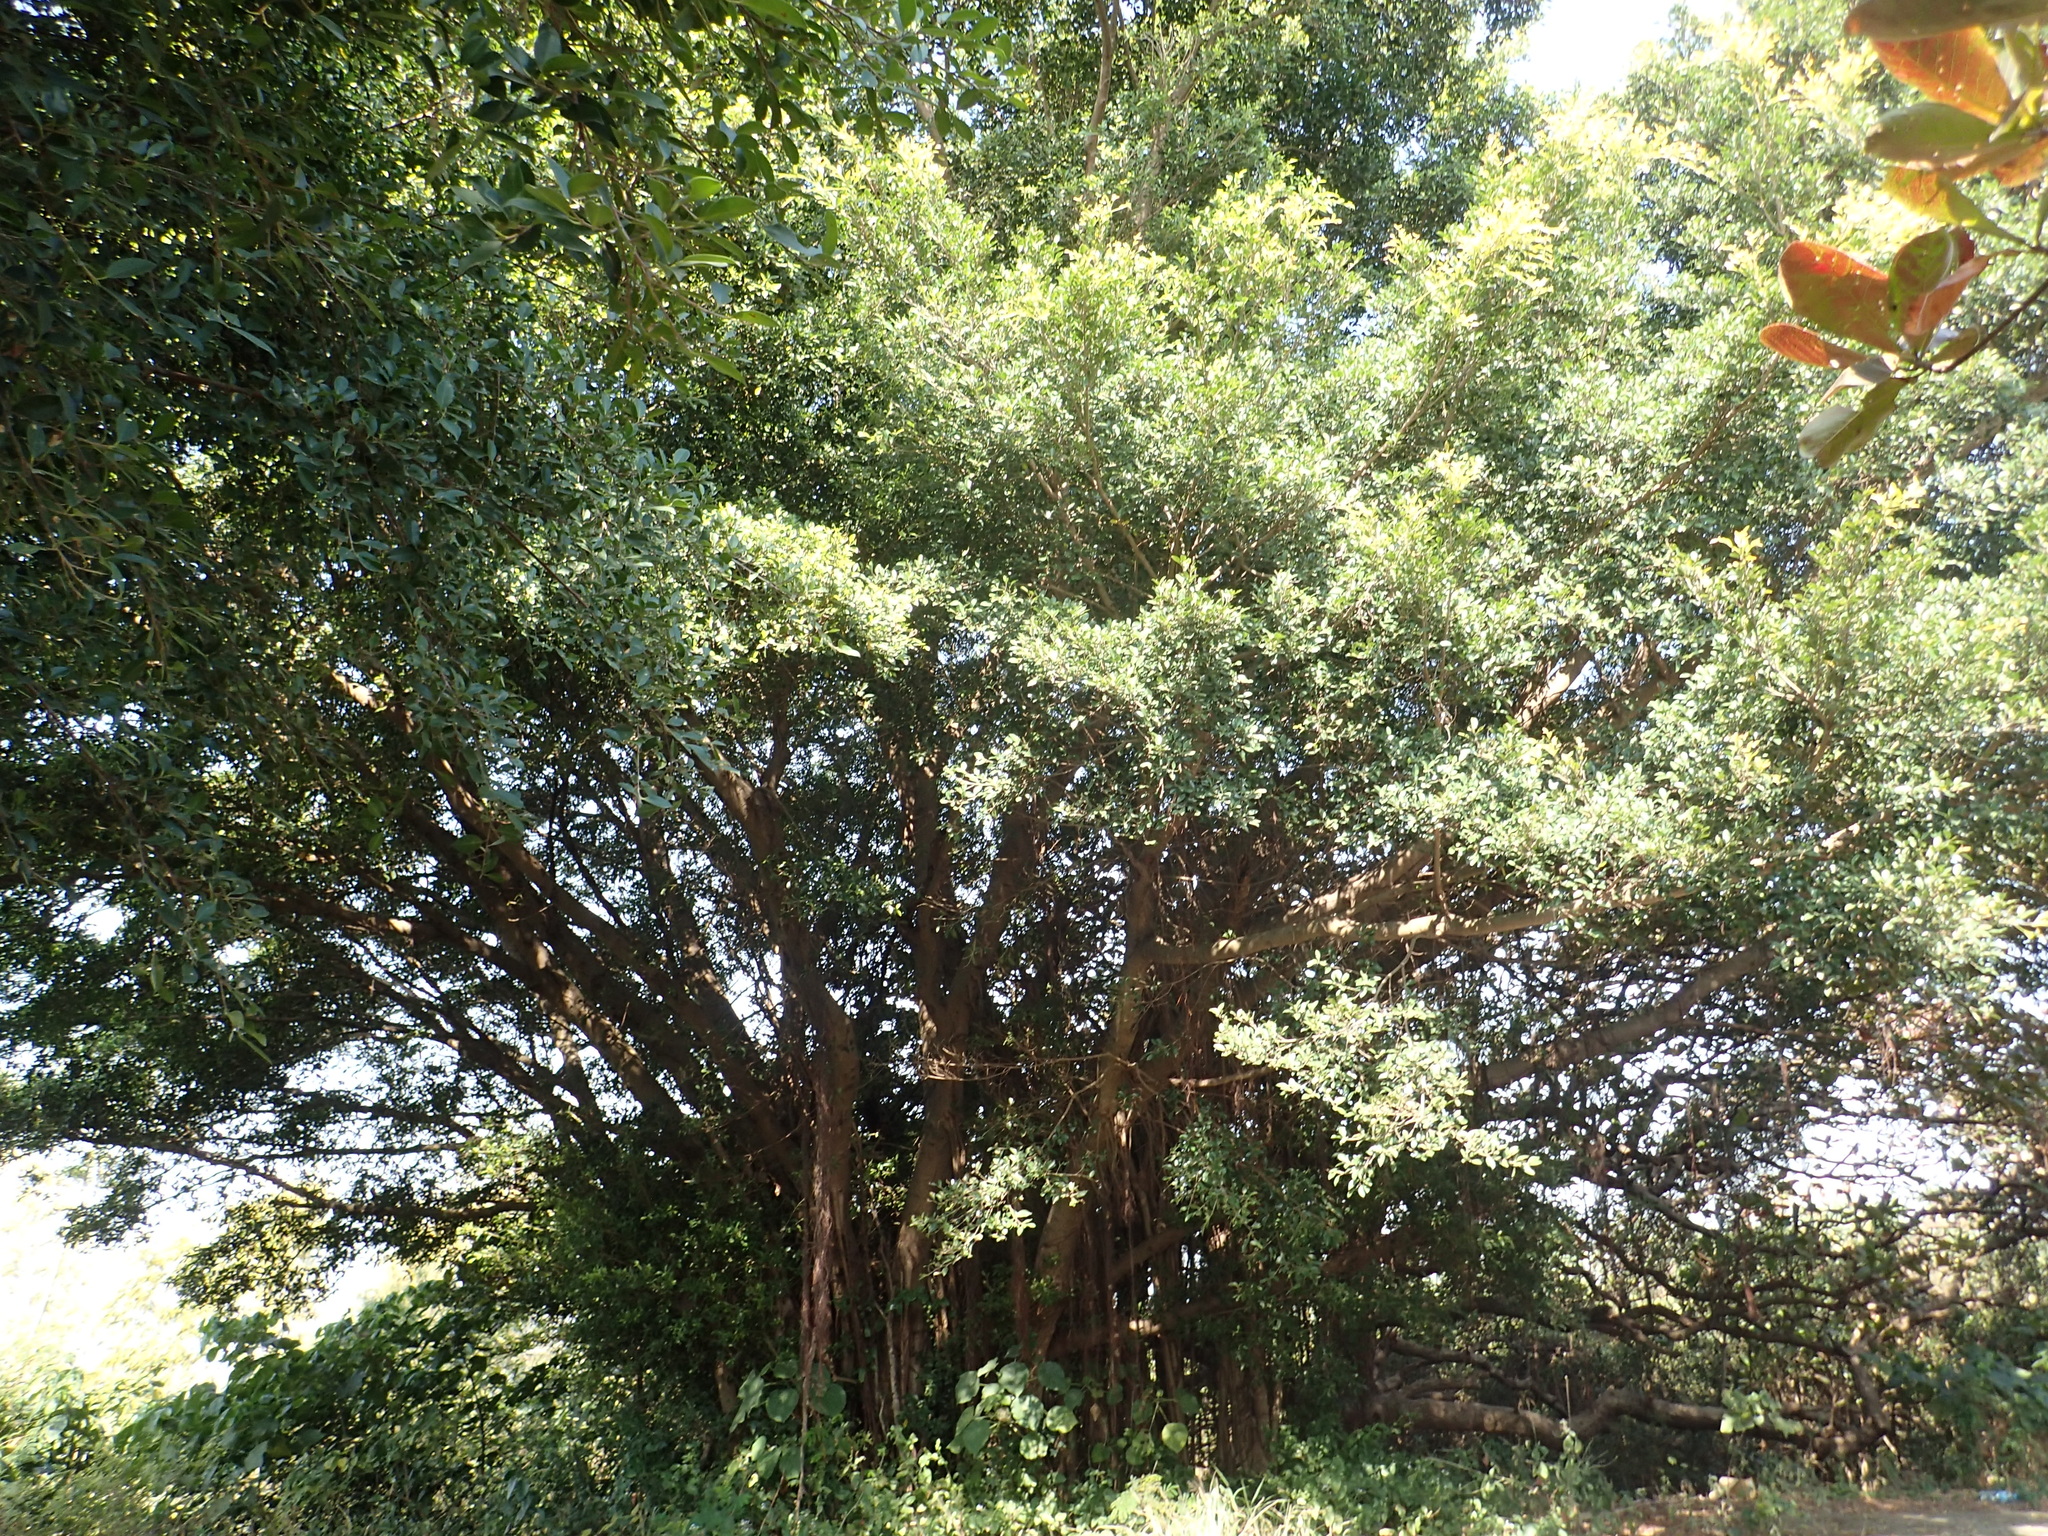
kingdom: Plantae
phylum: Tracheophyta
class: Magnoliopsida
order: Rosales
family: Moraceae
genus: Ficus
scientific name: Ficus microcarpa
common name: Chinese banyan
